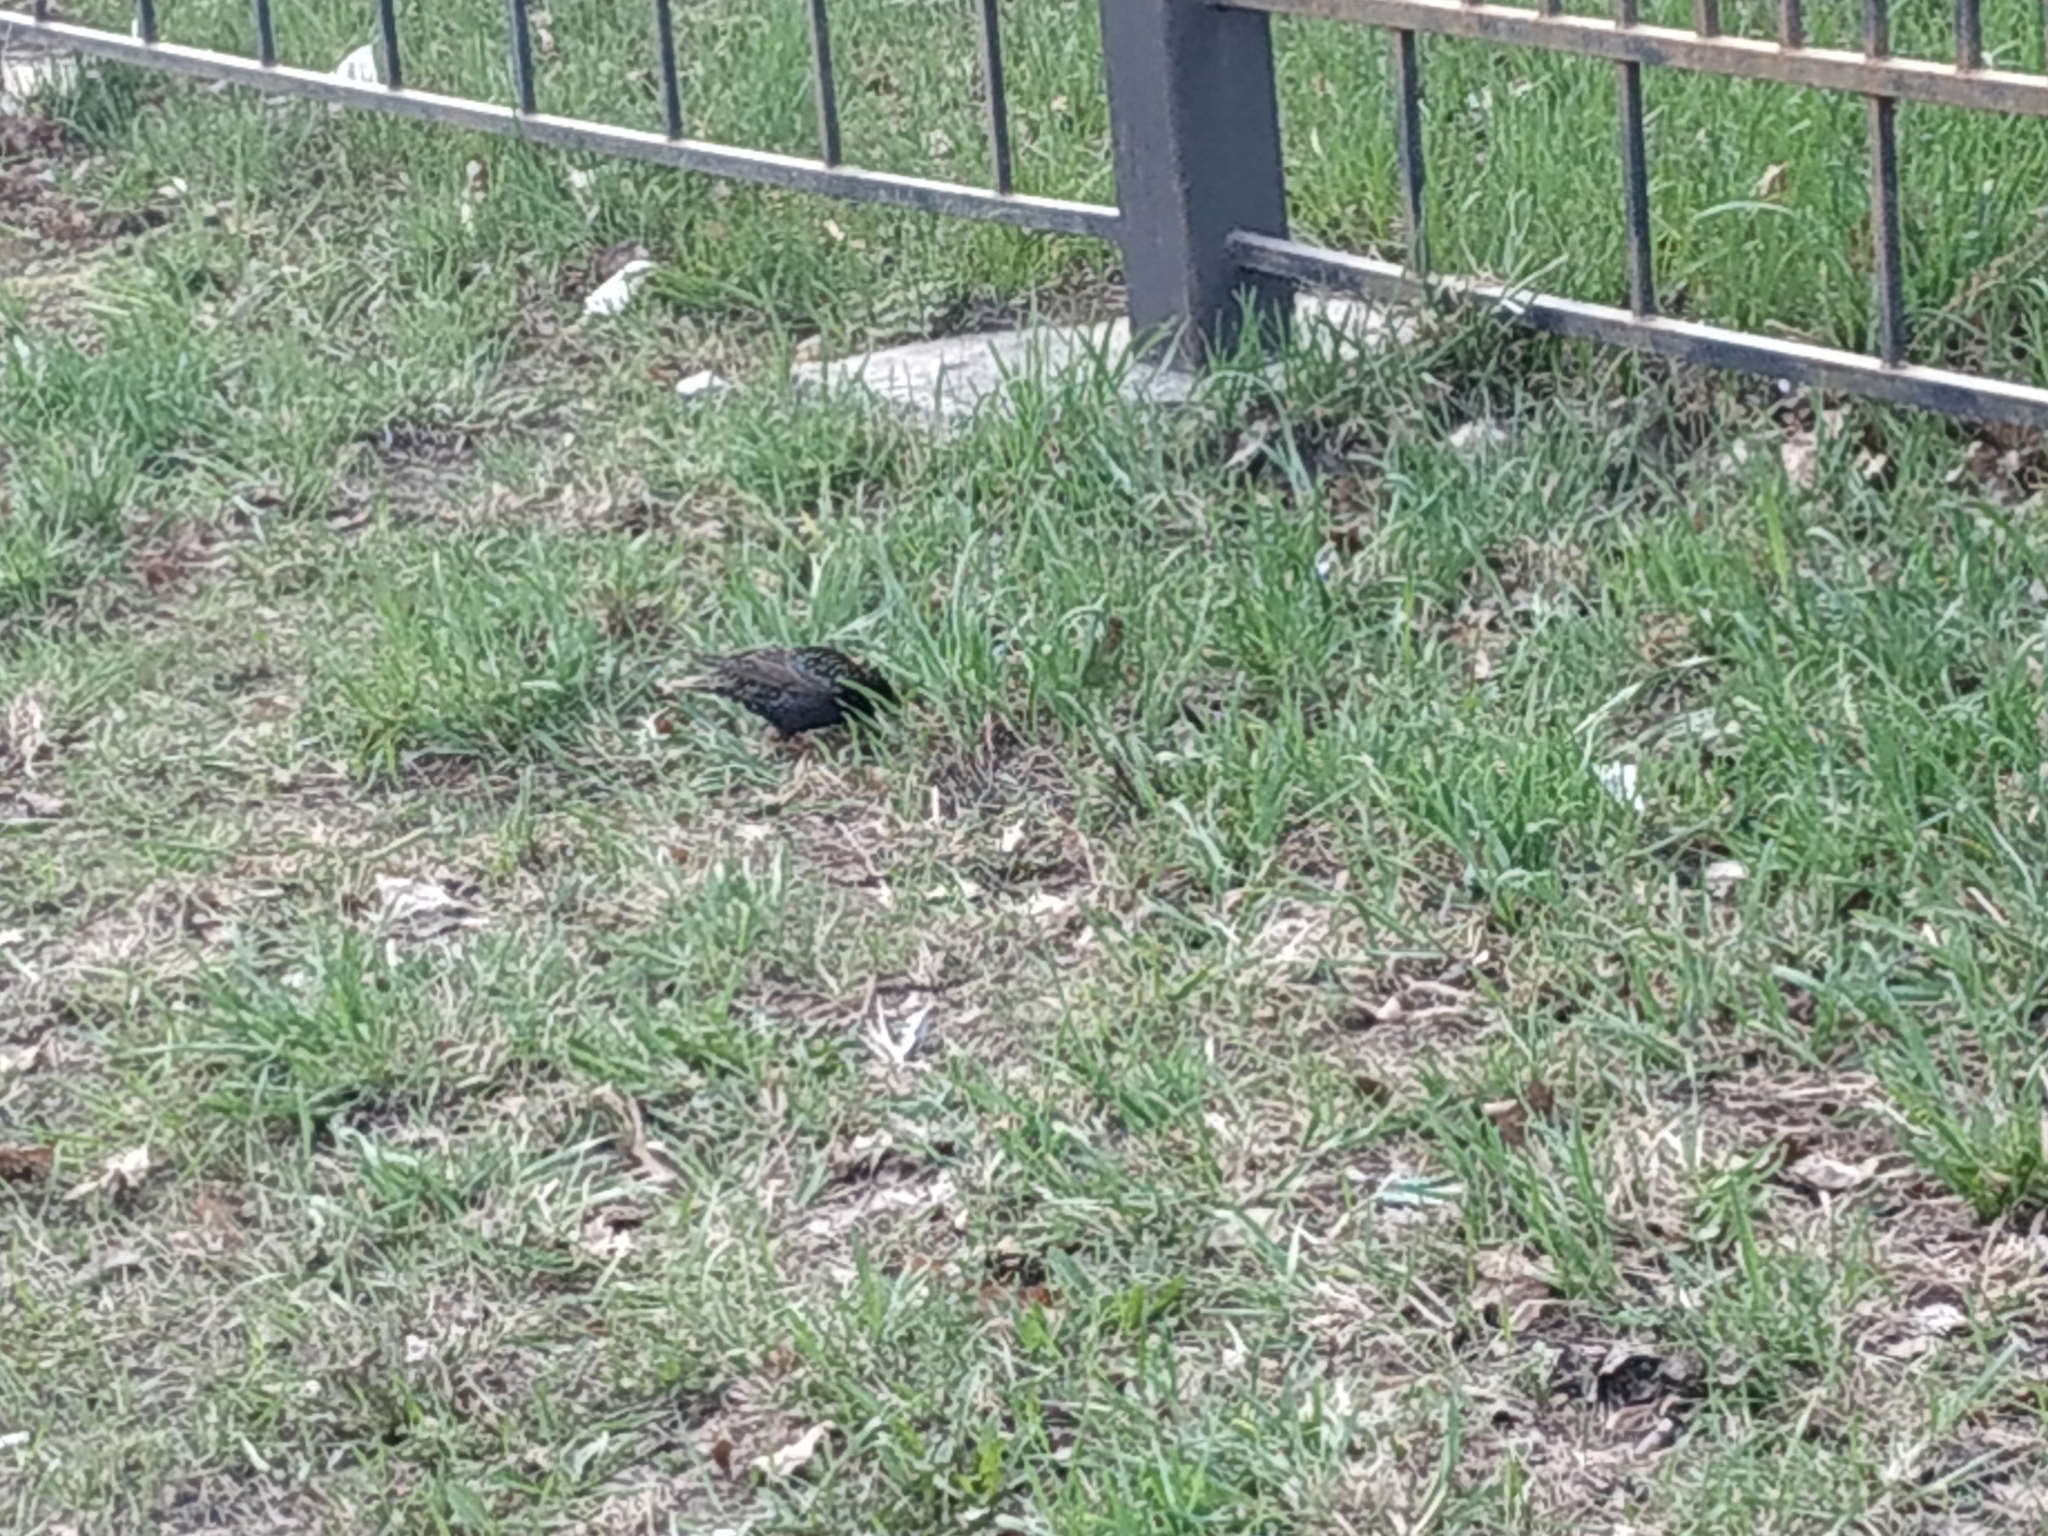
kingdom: Animalia
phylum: Chordata
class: Aves
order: Passeriformes
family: Sturnidae
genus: Sturnus
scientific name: Sturnus vulgaris
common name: Common starling
